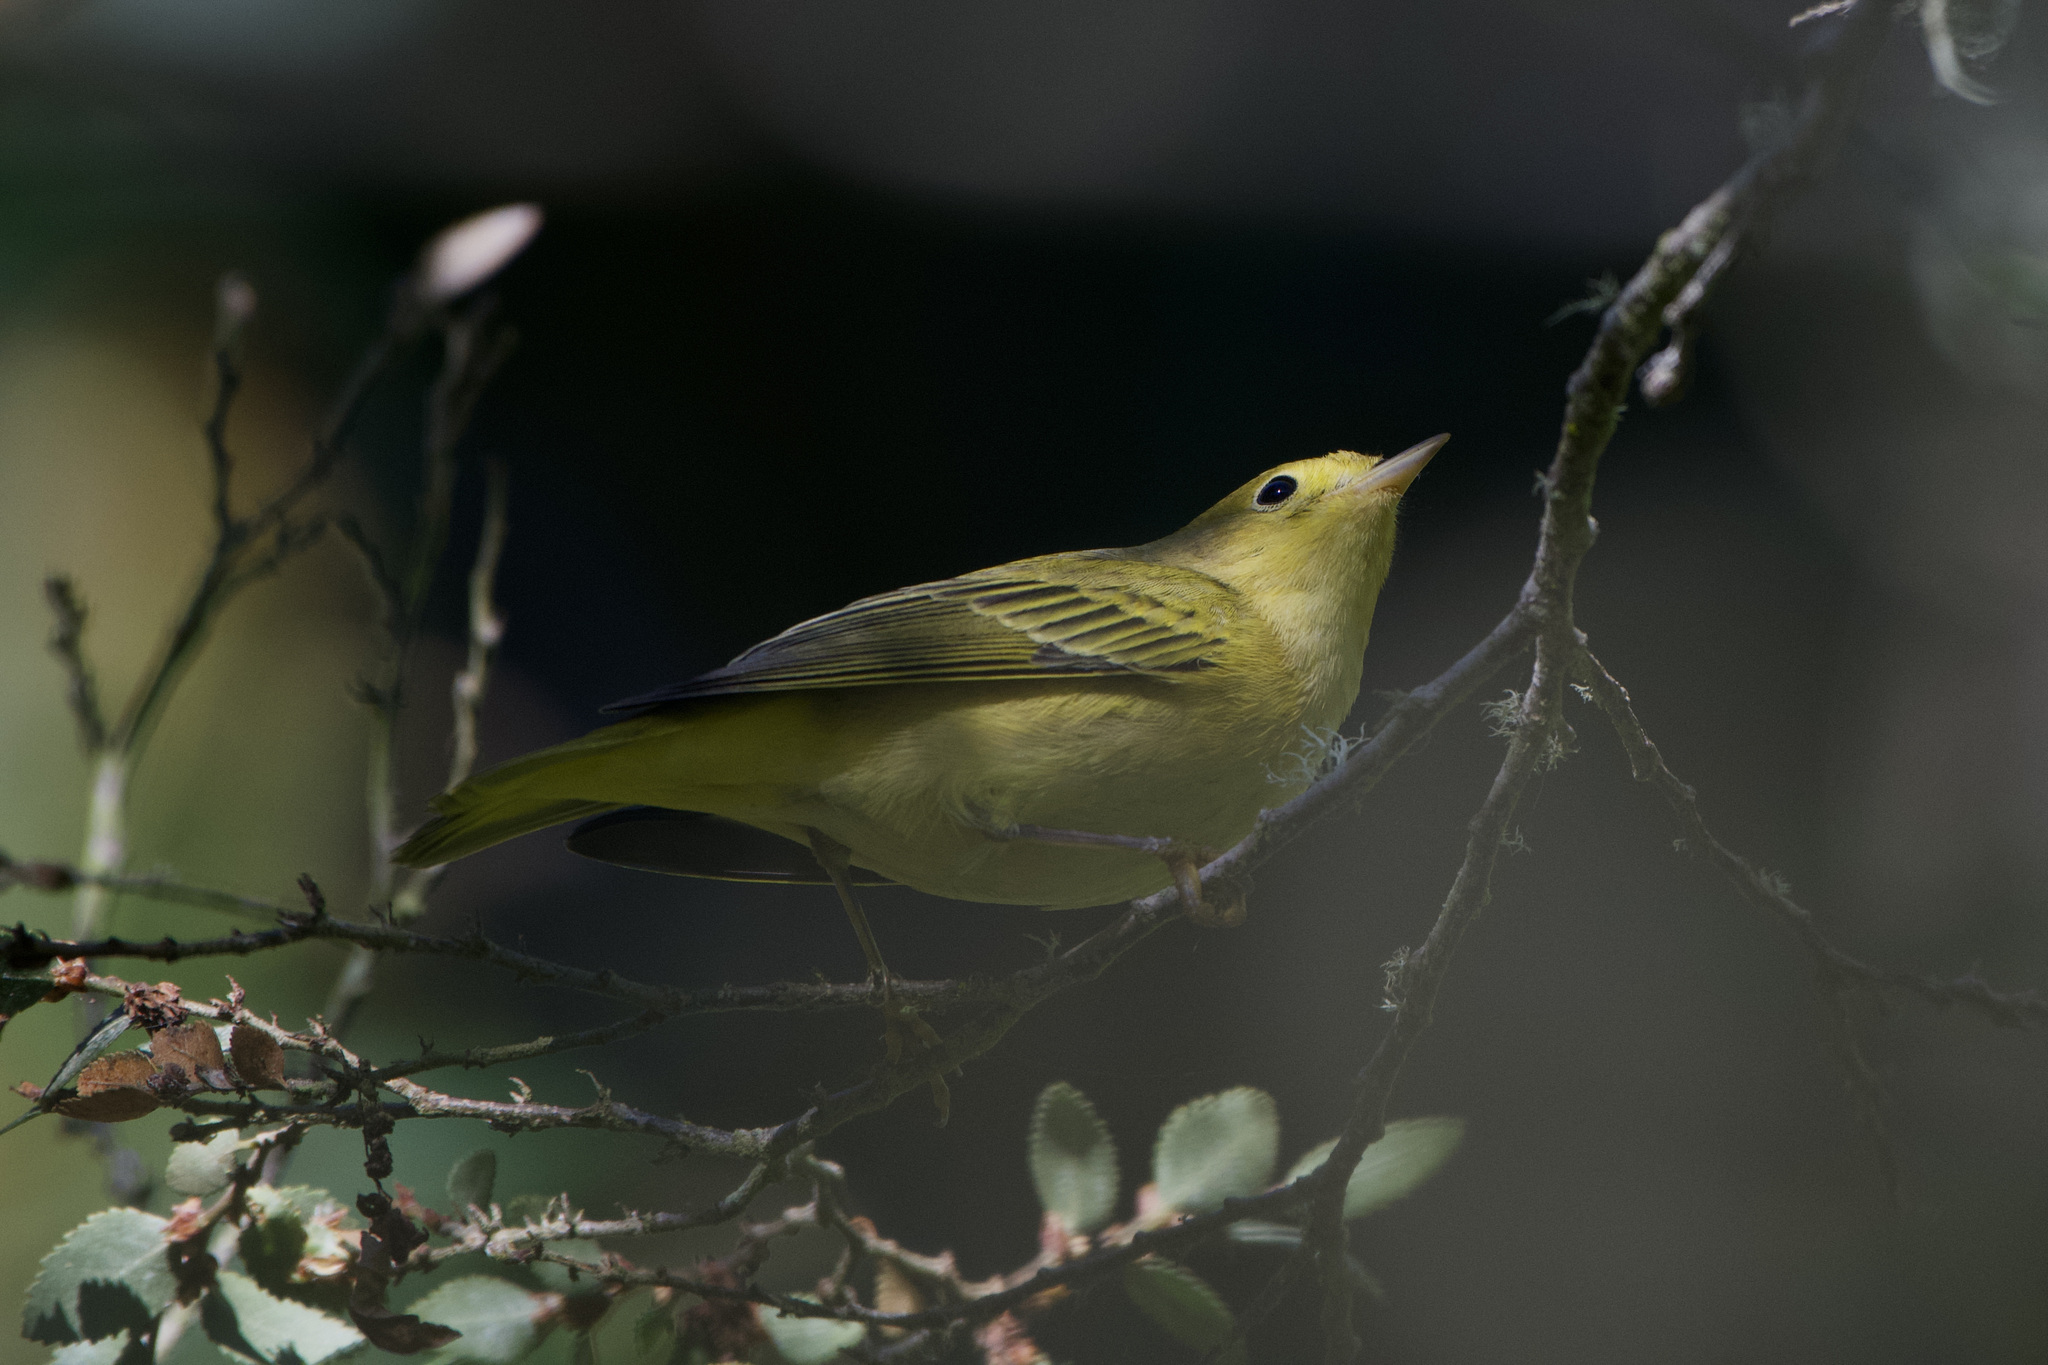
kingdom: Animalia
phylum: Chordata
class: Aves
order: Passeriformes
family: Parulidae
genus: Setophaga
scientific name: Setophaga petechia
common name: Yellow warbler
